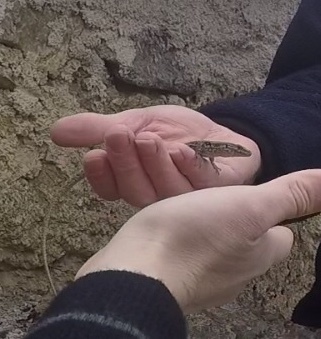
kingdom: Animalia
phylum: Chordata
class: Squamata
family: Lacertidae
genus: Podarcis
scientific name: Podarcis muralis
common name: Common wall lizard
